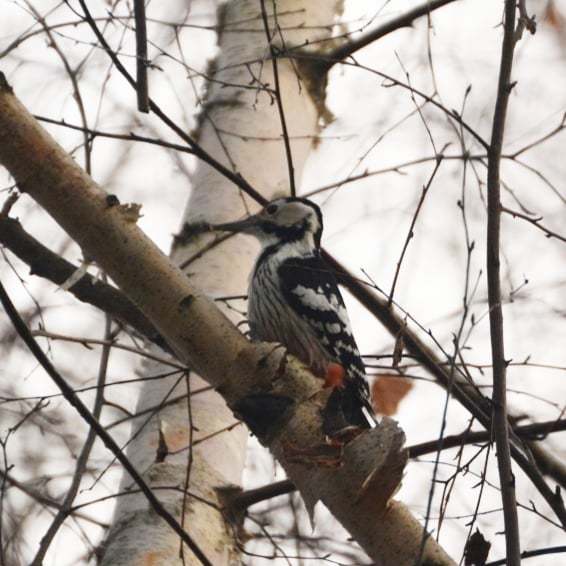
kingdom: Animalia
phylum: Chordata
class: Aves
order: Piciformes
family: Picidae
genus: Dendrocopos
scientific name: Dendrocopos leucotos
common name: White-backed woodpecker
